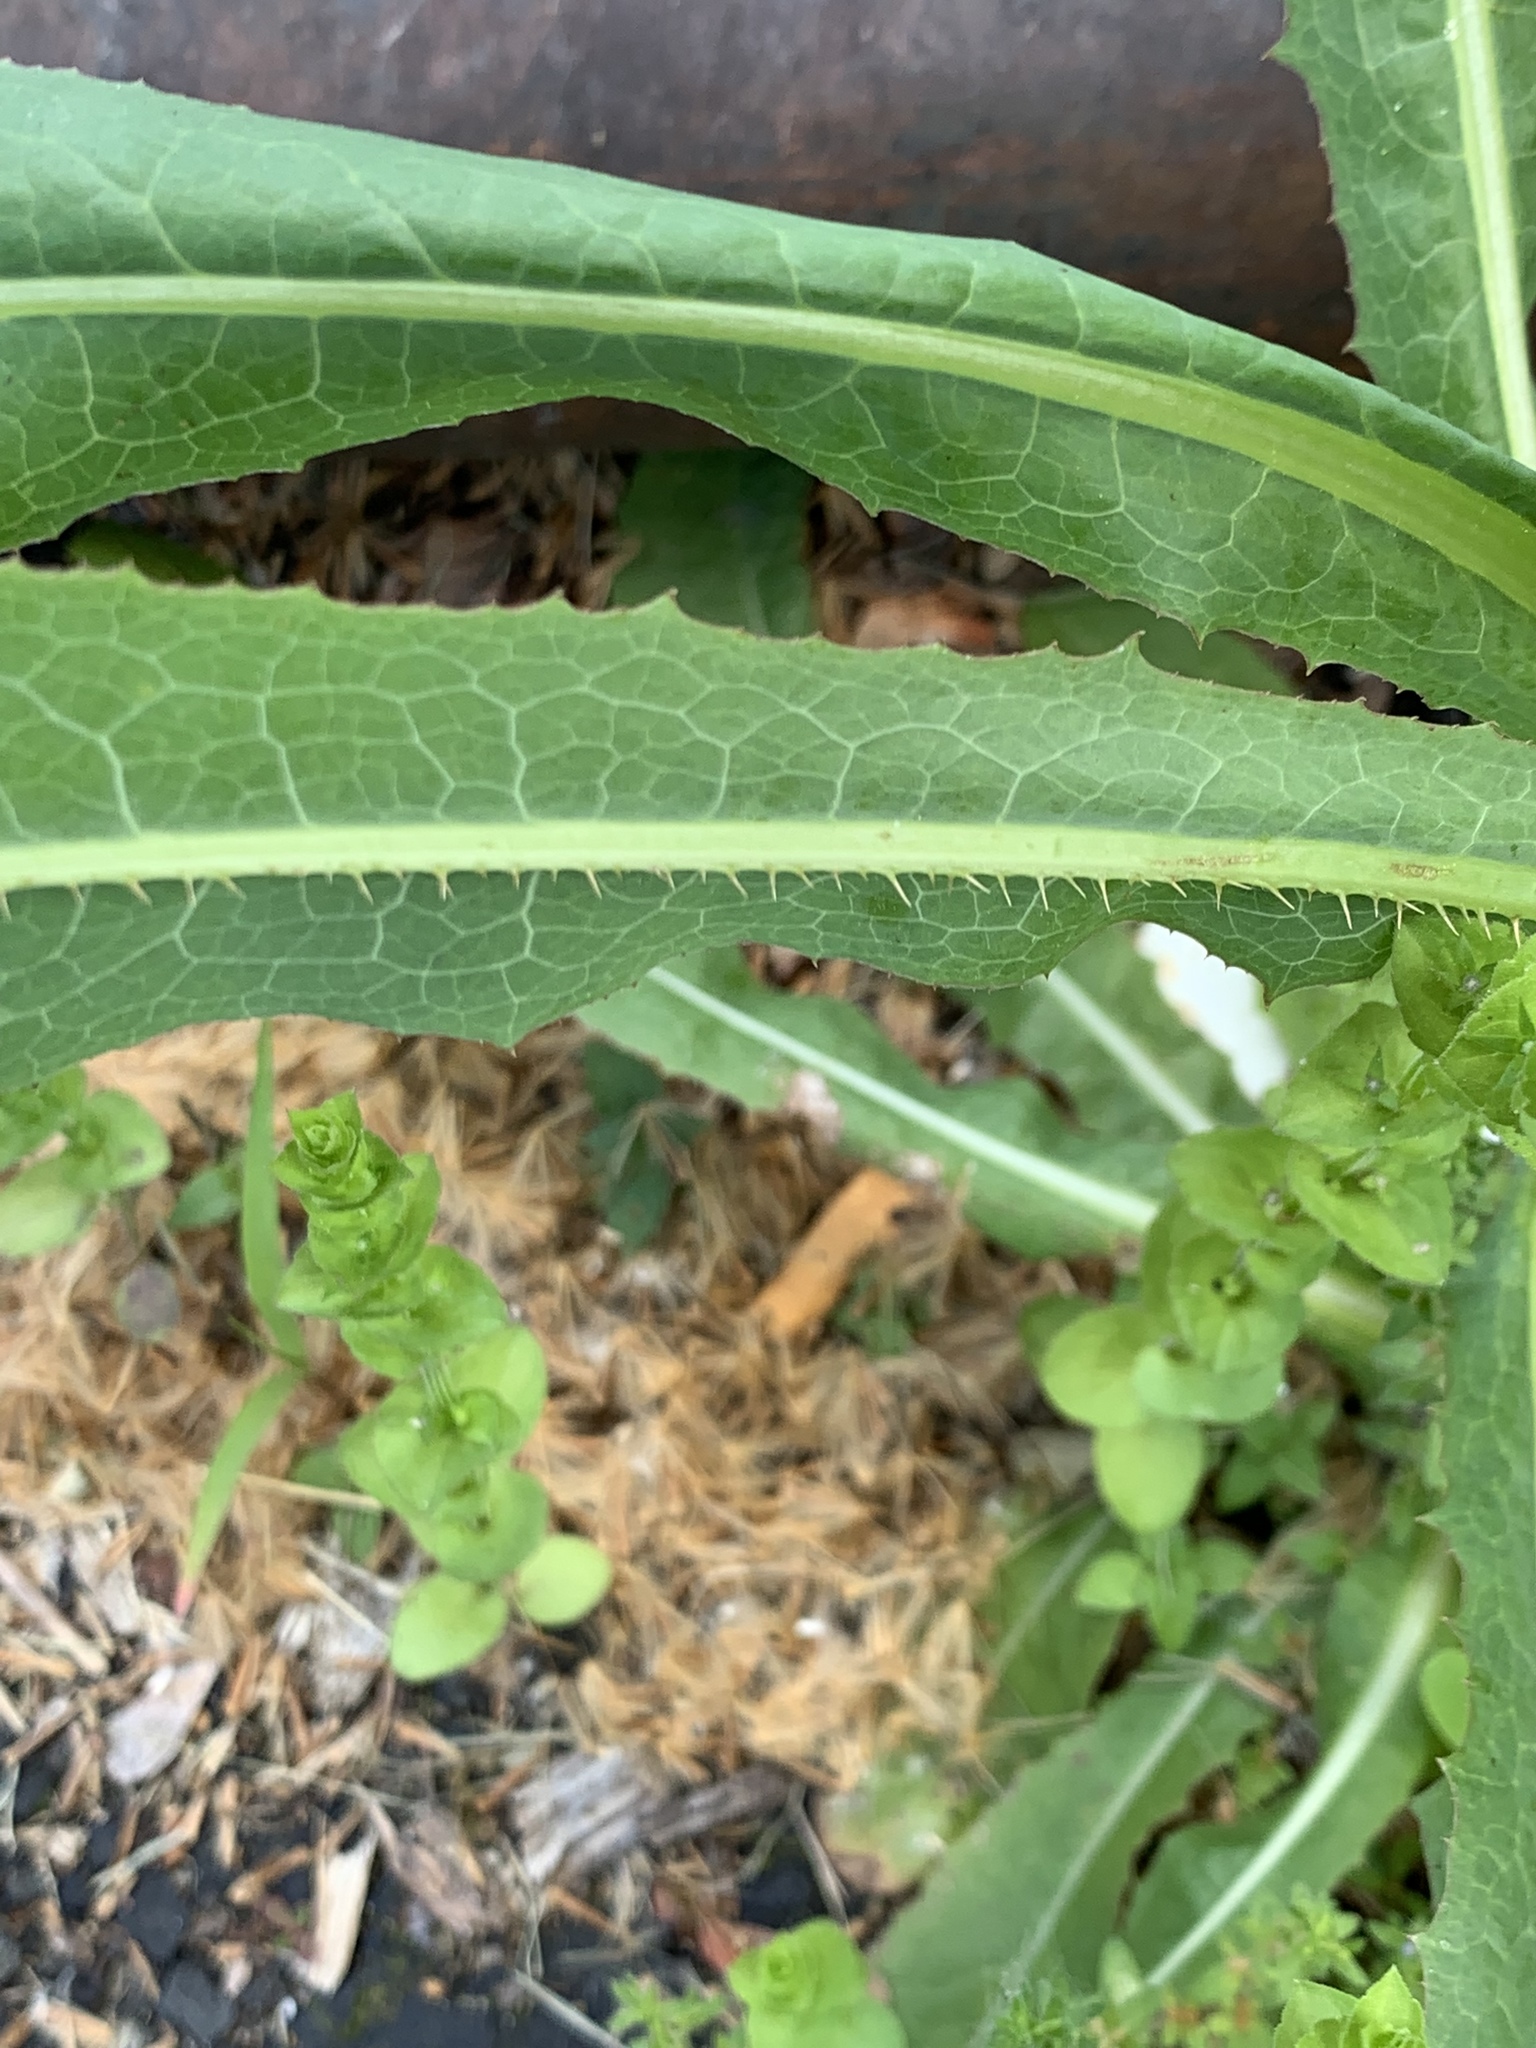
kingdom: Plantae
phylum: Tracheophyta
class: Magnoliopsida
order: Asterales
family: Asteraceae
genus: Lactuca
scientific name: Lactuca serriola
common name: Prickly lettuce
